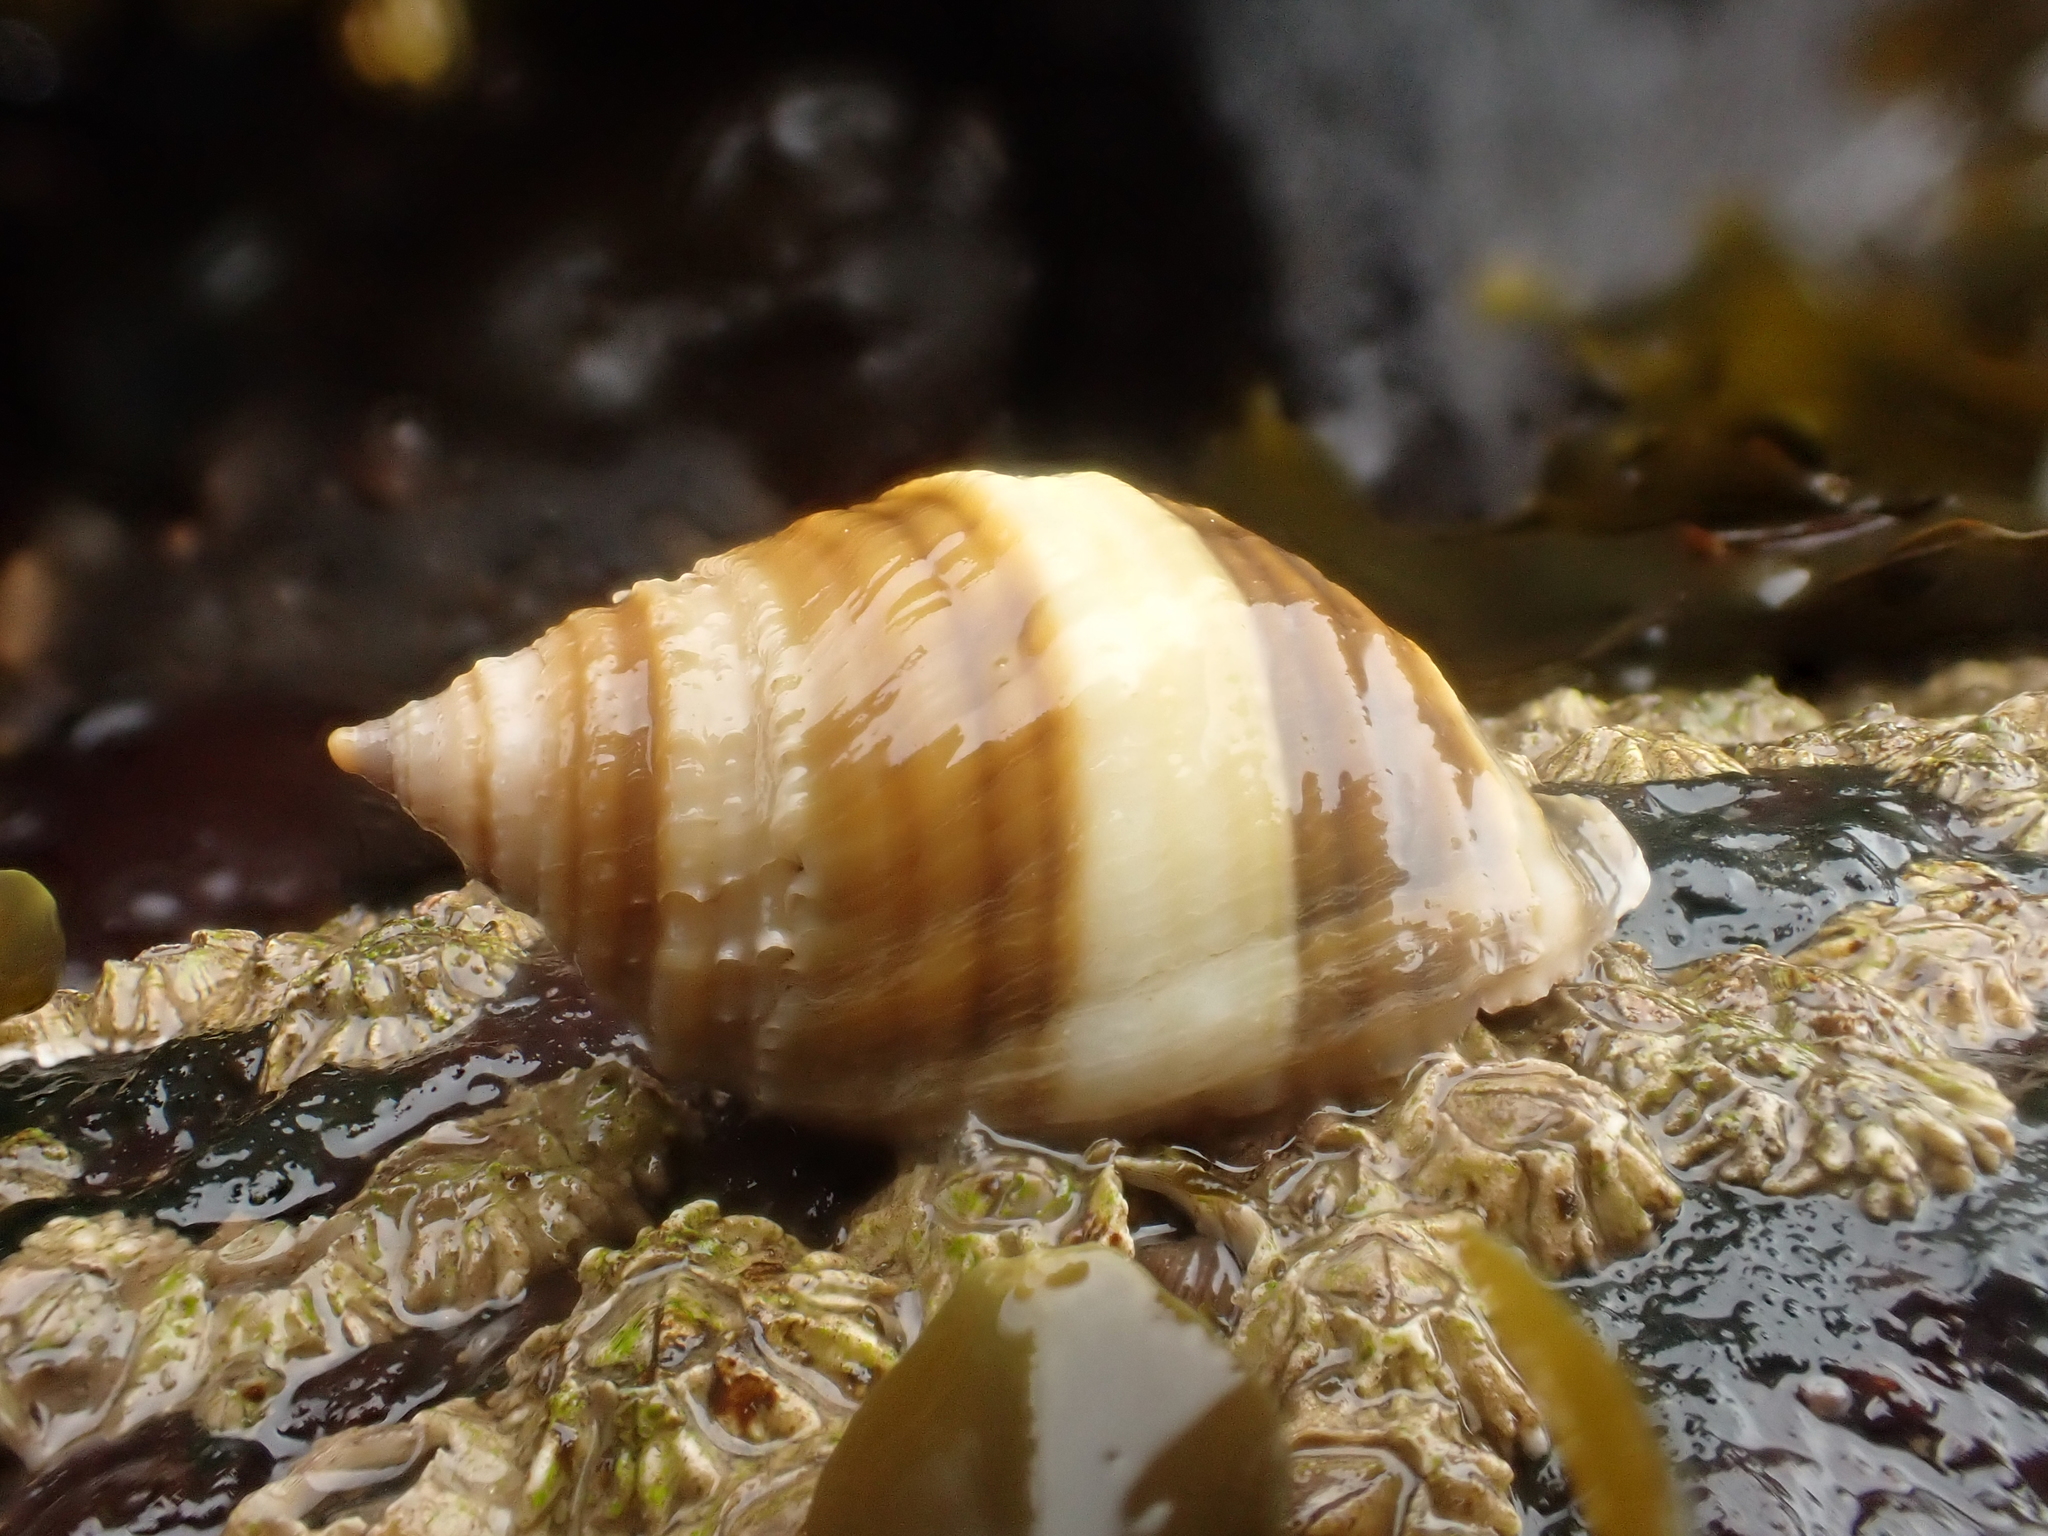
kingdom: Animalia
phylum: Mollusca
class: Gastropoda
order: Neogastropoda
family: Muricidae
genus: Nucella
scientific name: Nucella lapillus
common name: Dog whelk
